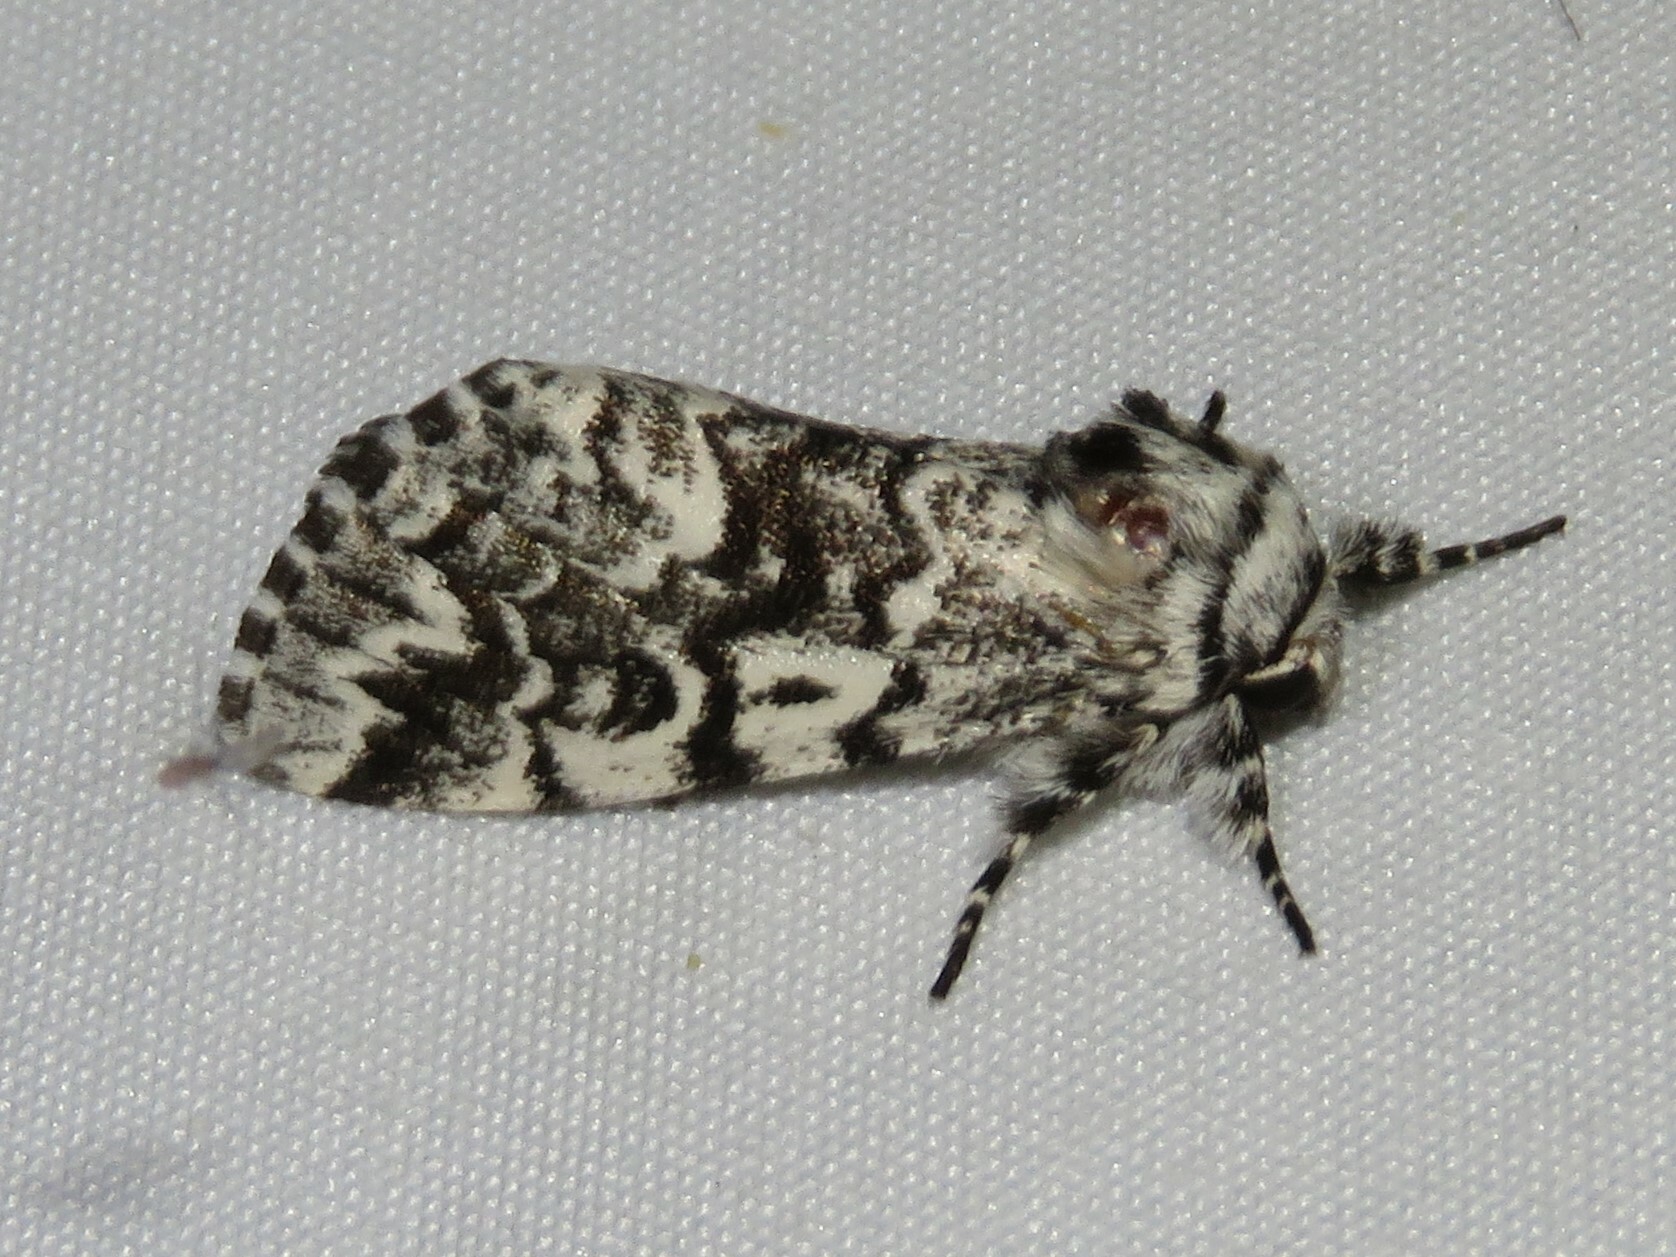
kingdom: Animalia
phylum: Arthropoda
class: Insecta
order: Lepidoptera
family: Noctuidae
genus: Panthea
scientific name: Panthea acronyctoides
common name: Black zigzag moth
